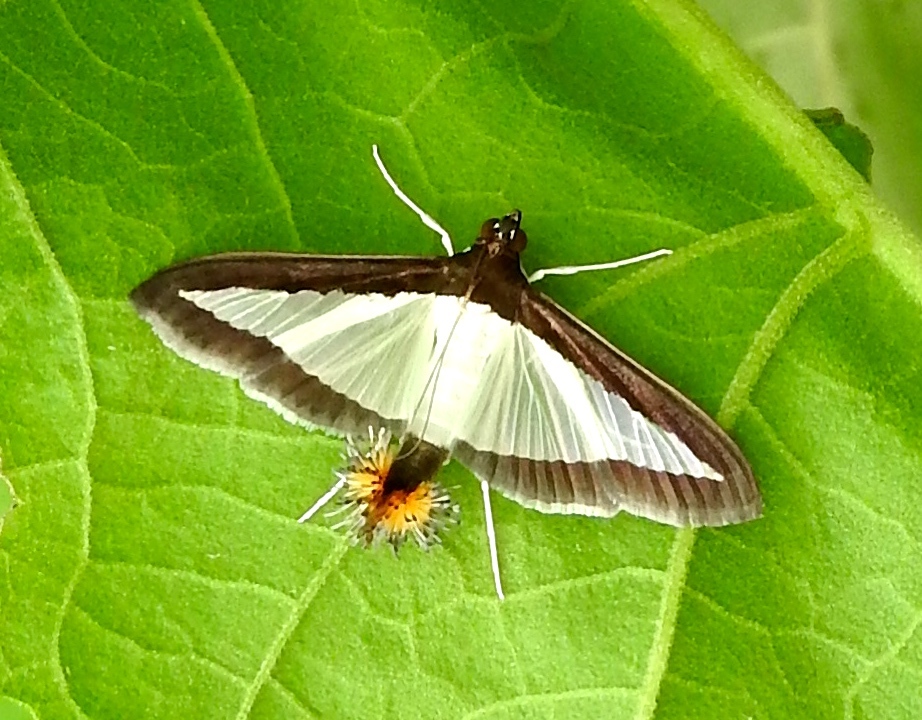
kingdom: Animalia
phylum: Arthropoda
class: Insecta
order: Lepidoptera
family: Crambidae
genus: Diaphania
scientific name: Diaphania hyalinata
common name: Melonworm
